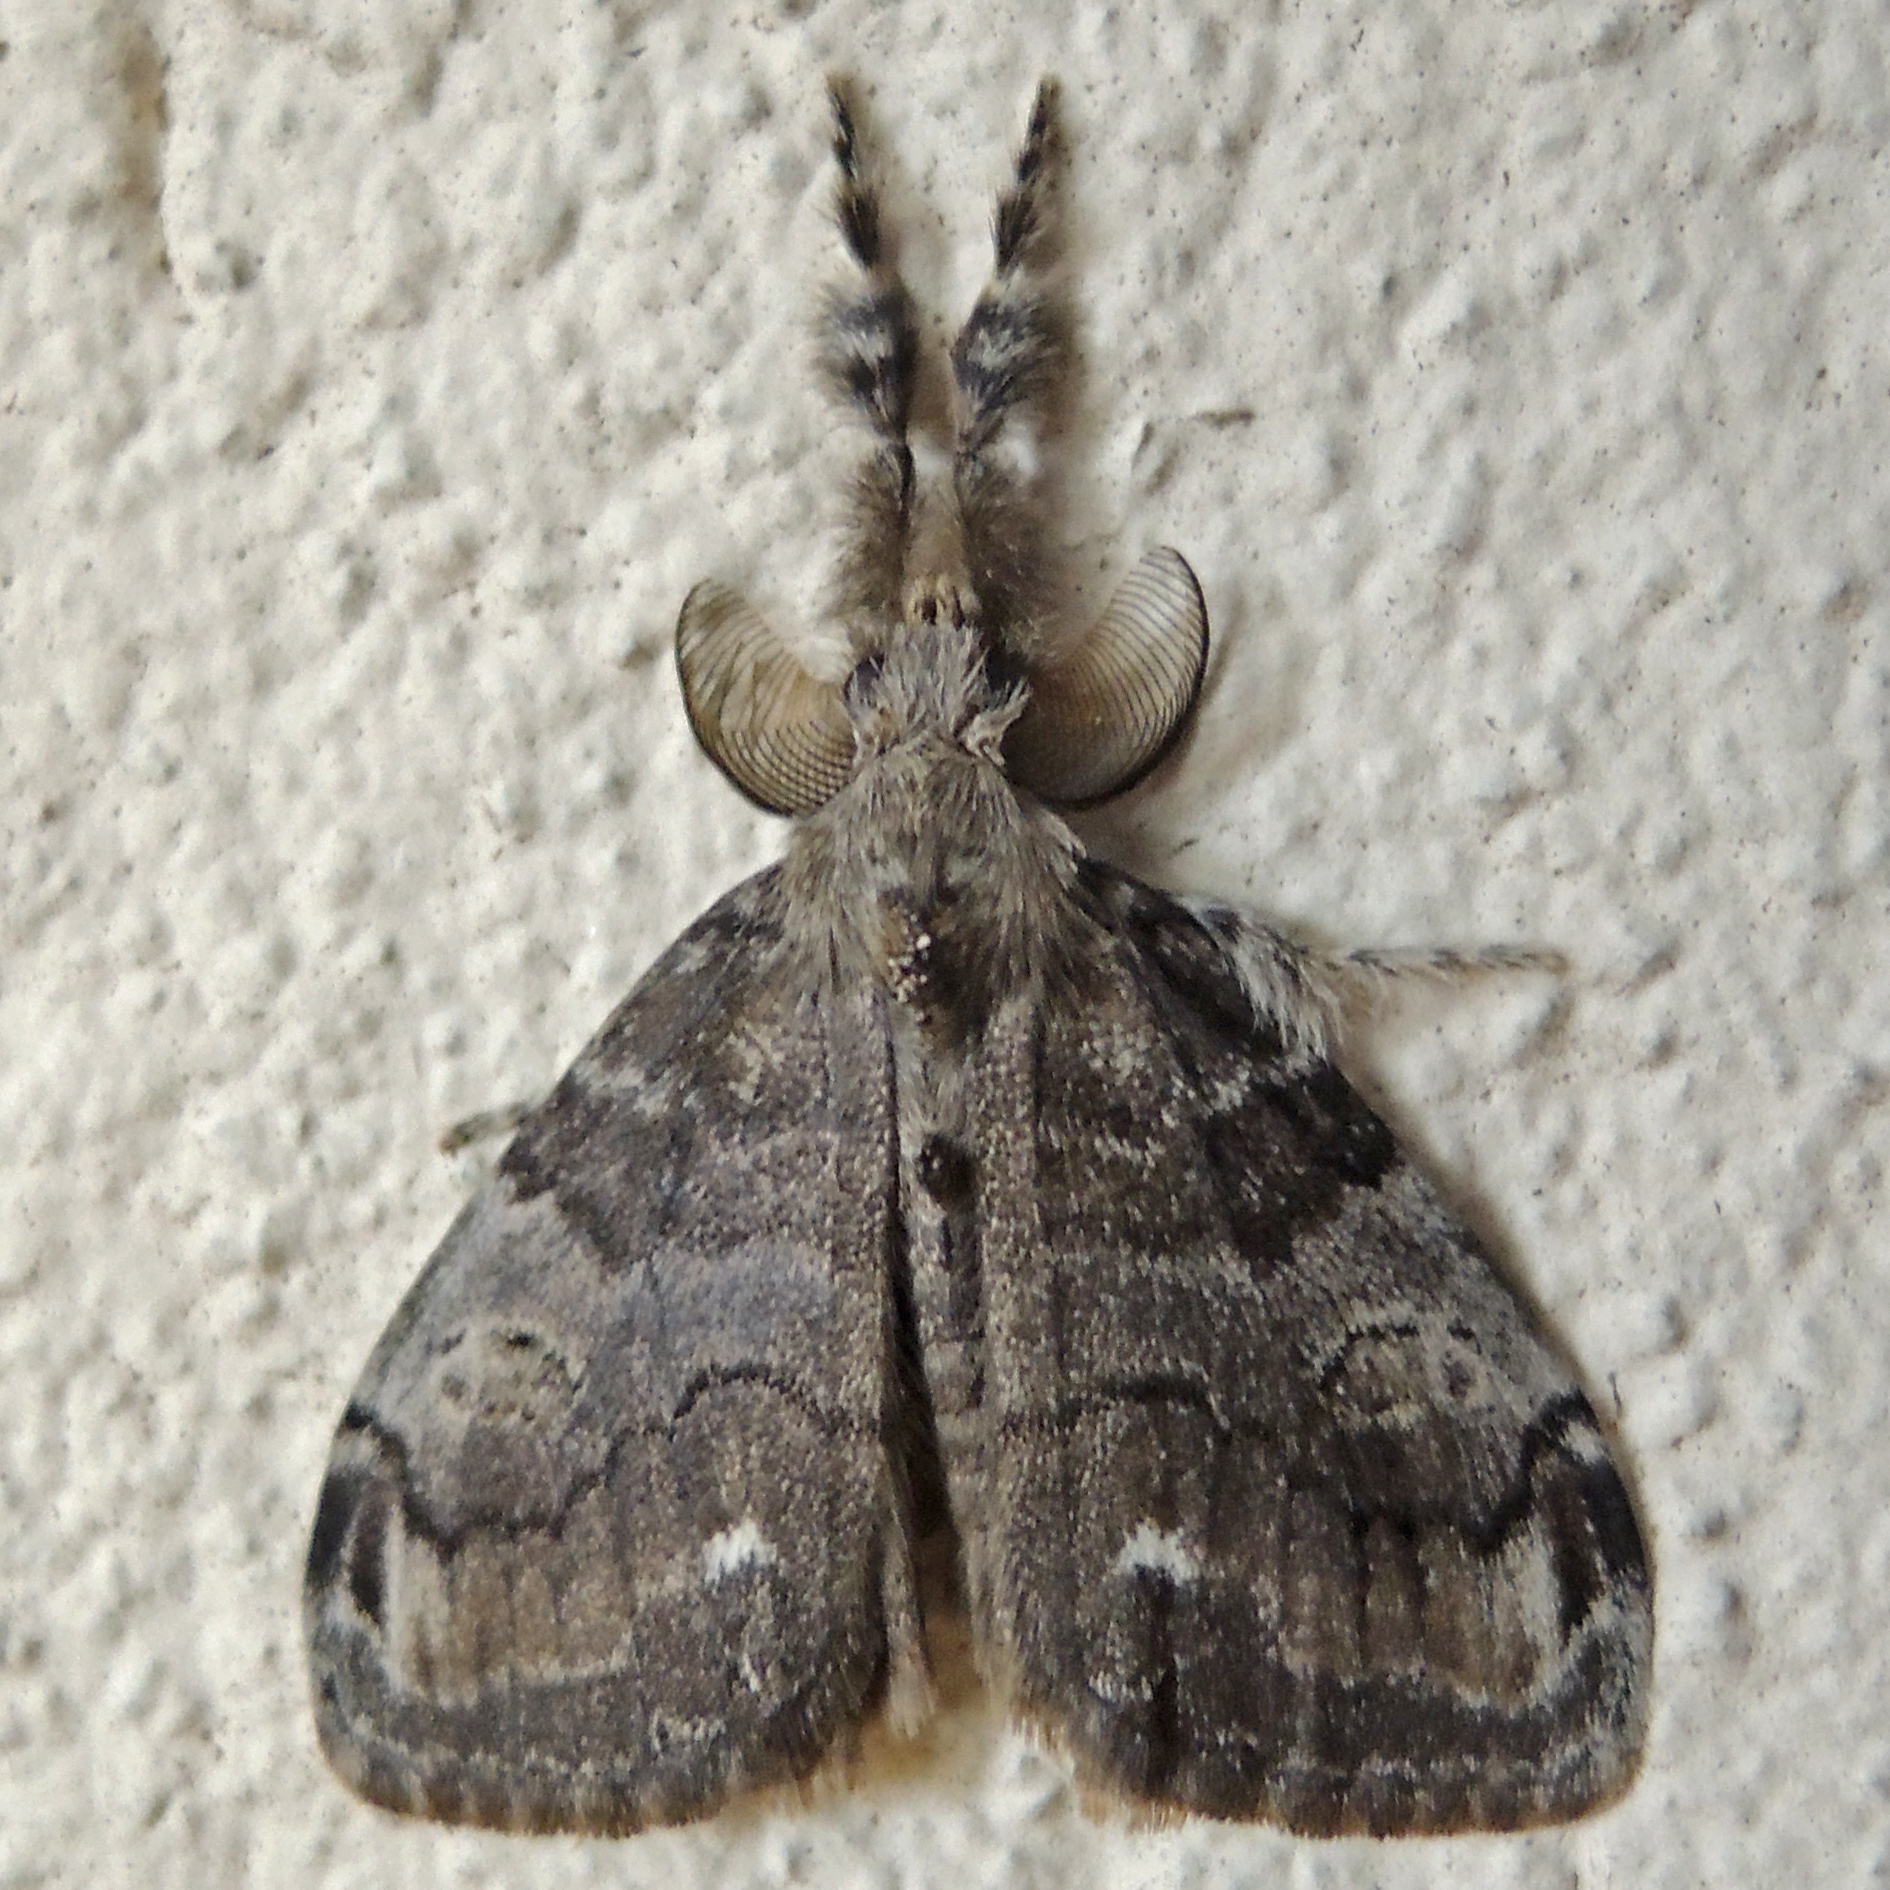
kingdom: Animalia
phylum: Arthropoda
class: Insecta
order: Lepidoptera
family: Erebidae
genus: Orgyia
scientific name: Orgyia leucostigma
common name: White-marked tussock moth
